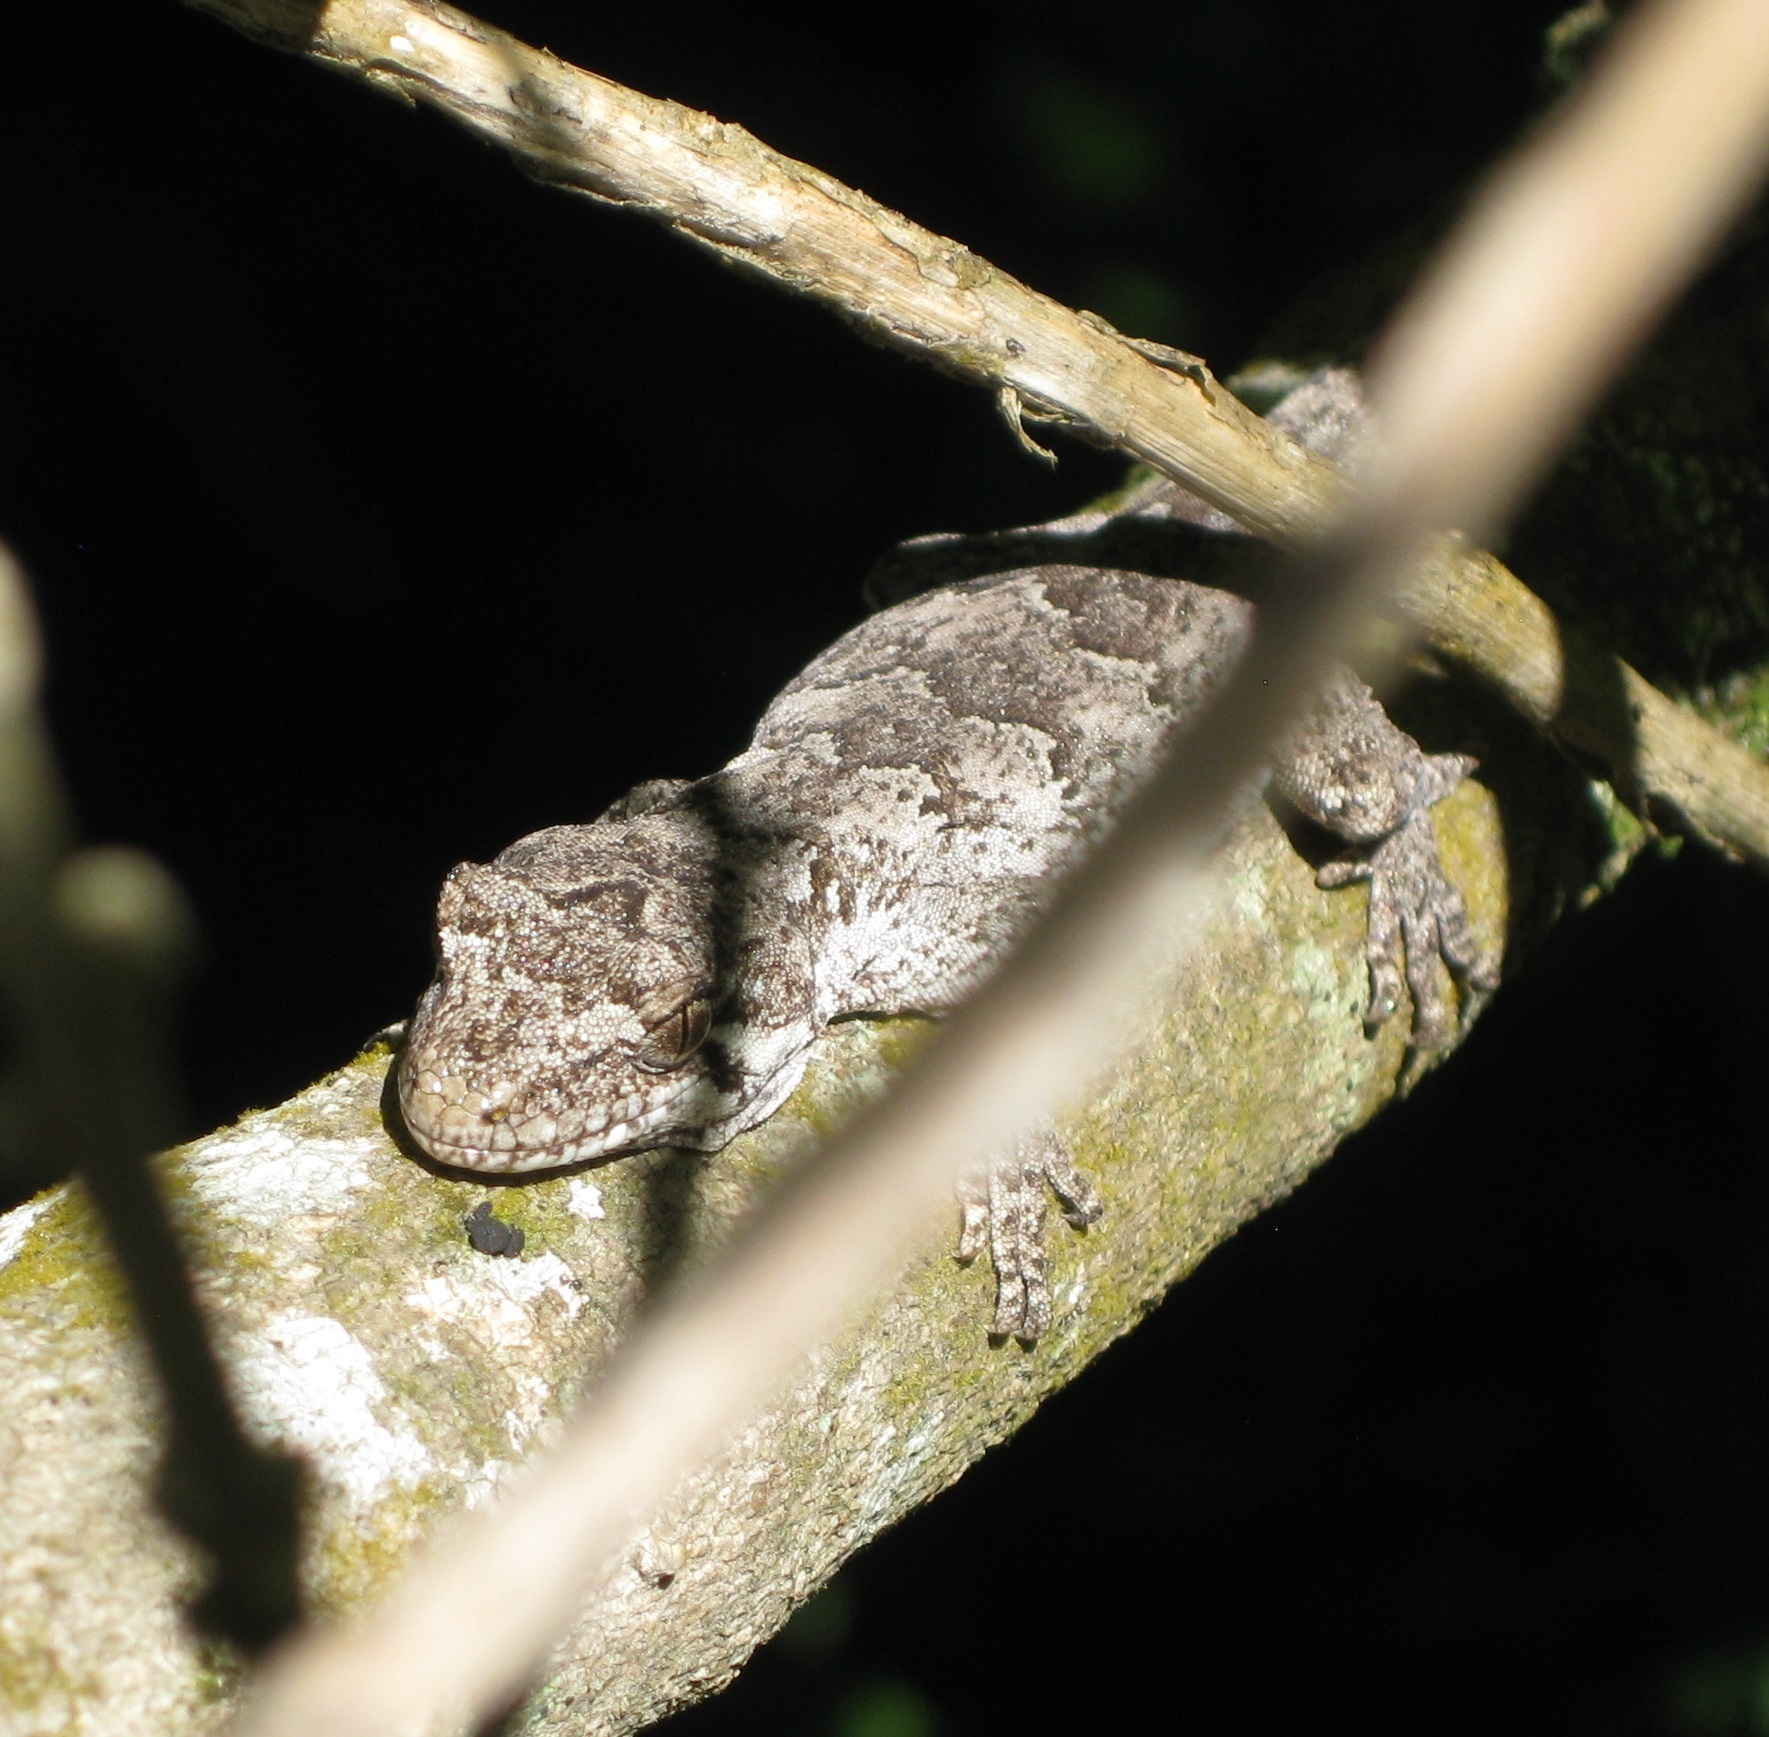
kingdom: Animalia
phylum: Chordata
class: Squamata
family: Diplodactylidae
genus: Mokopirirakau
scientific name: Mokopirirakau
